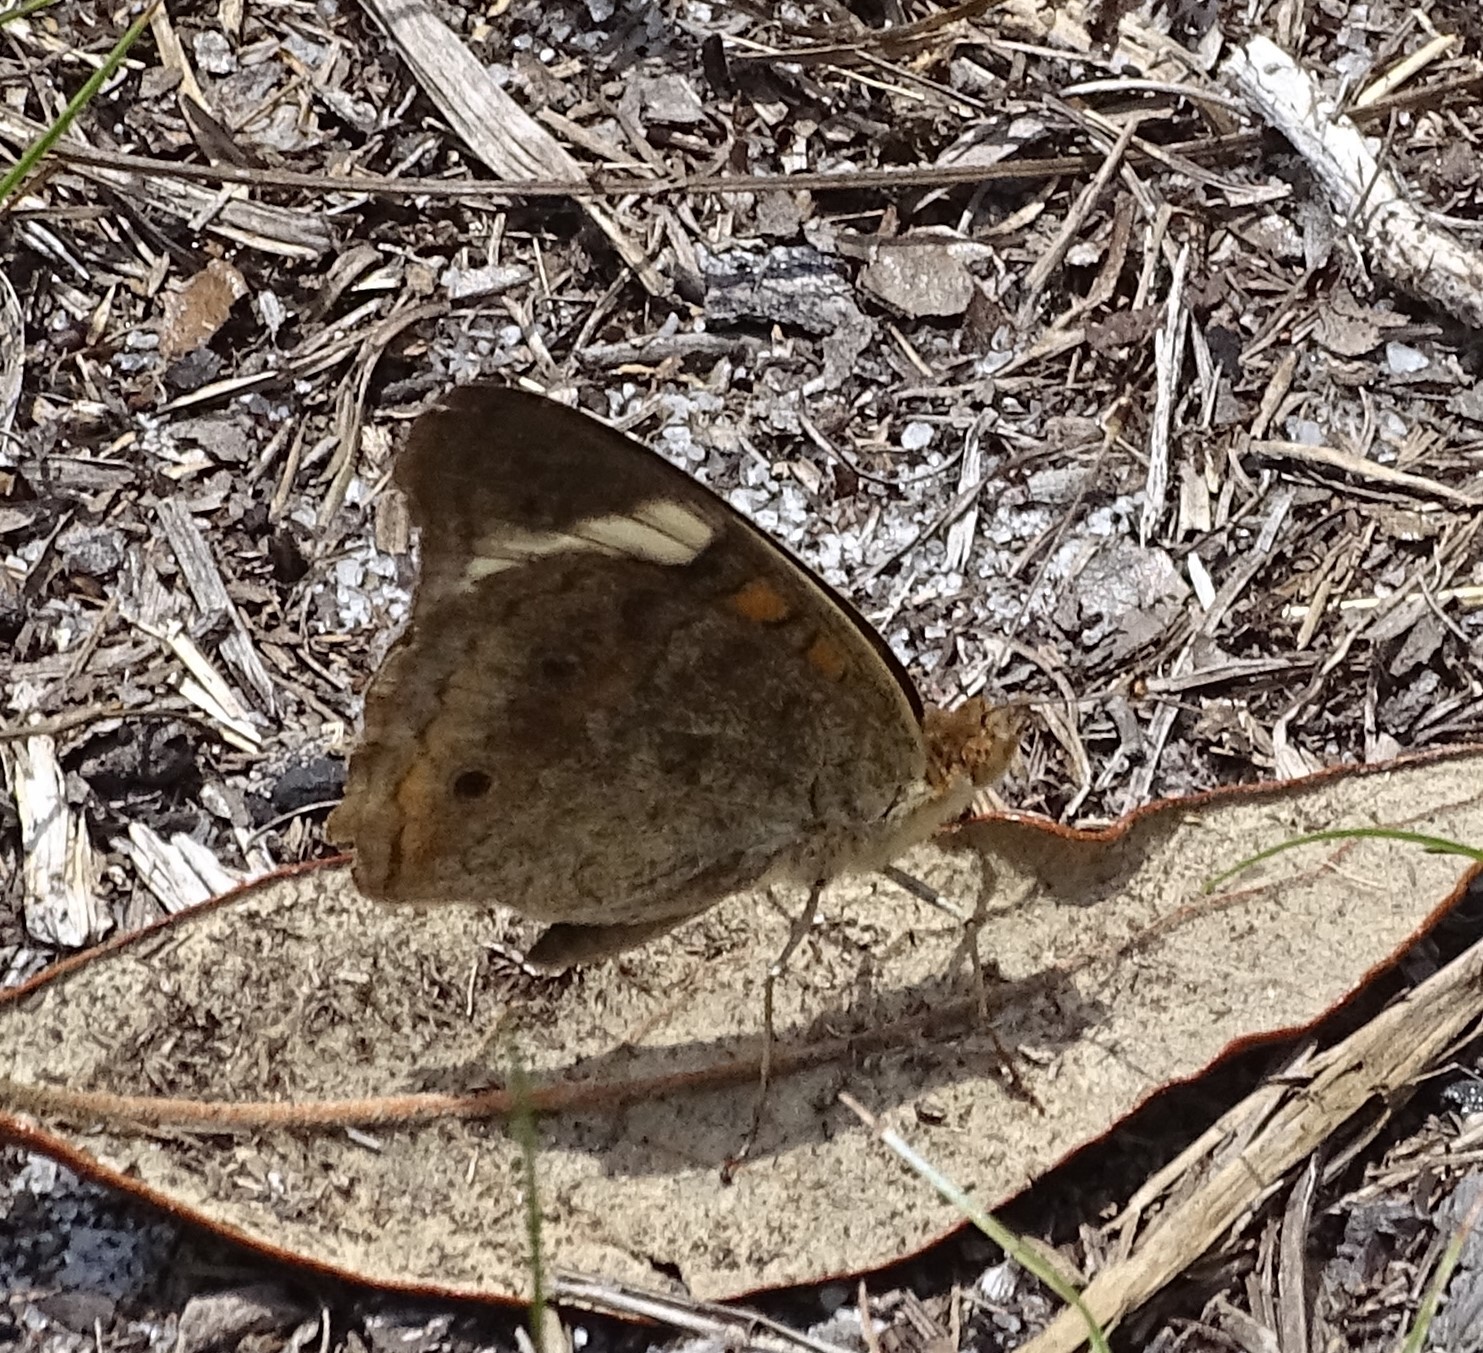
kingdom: Animalia
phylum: Arthropoda
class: Insecta
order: Lepidoptera
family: Nymphalidae
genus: Junonia
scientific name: Junonia coenia
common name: Common buckeye
